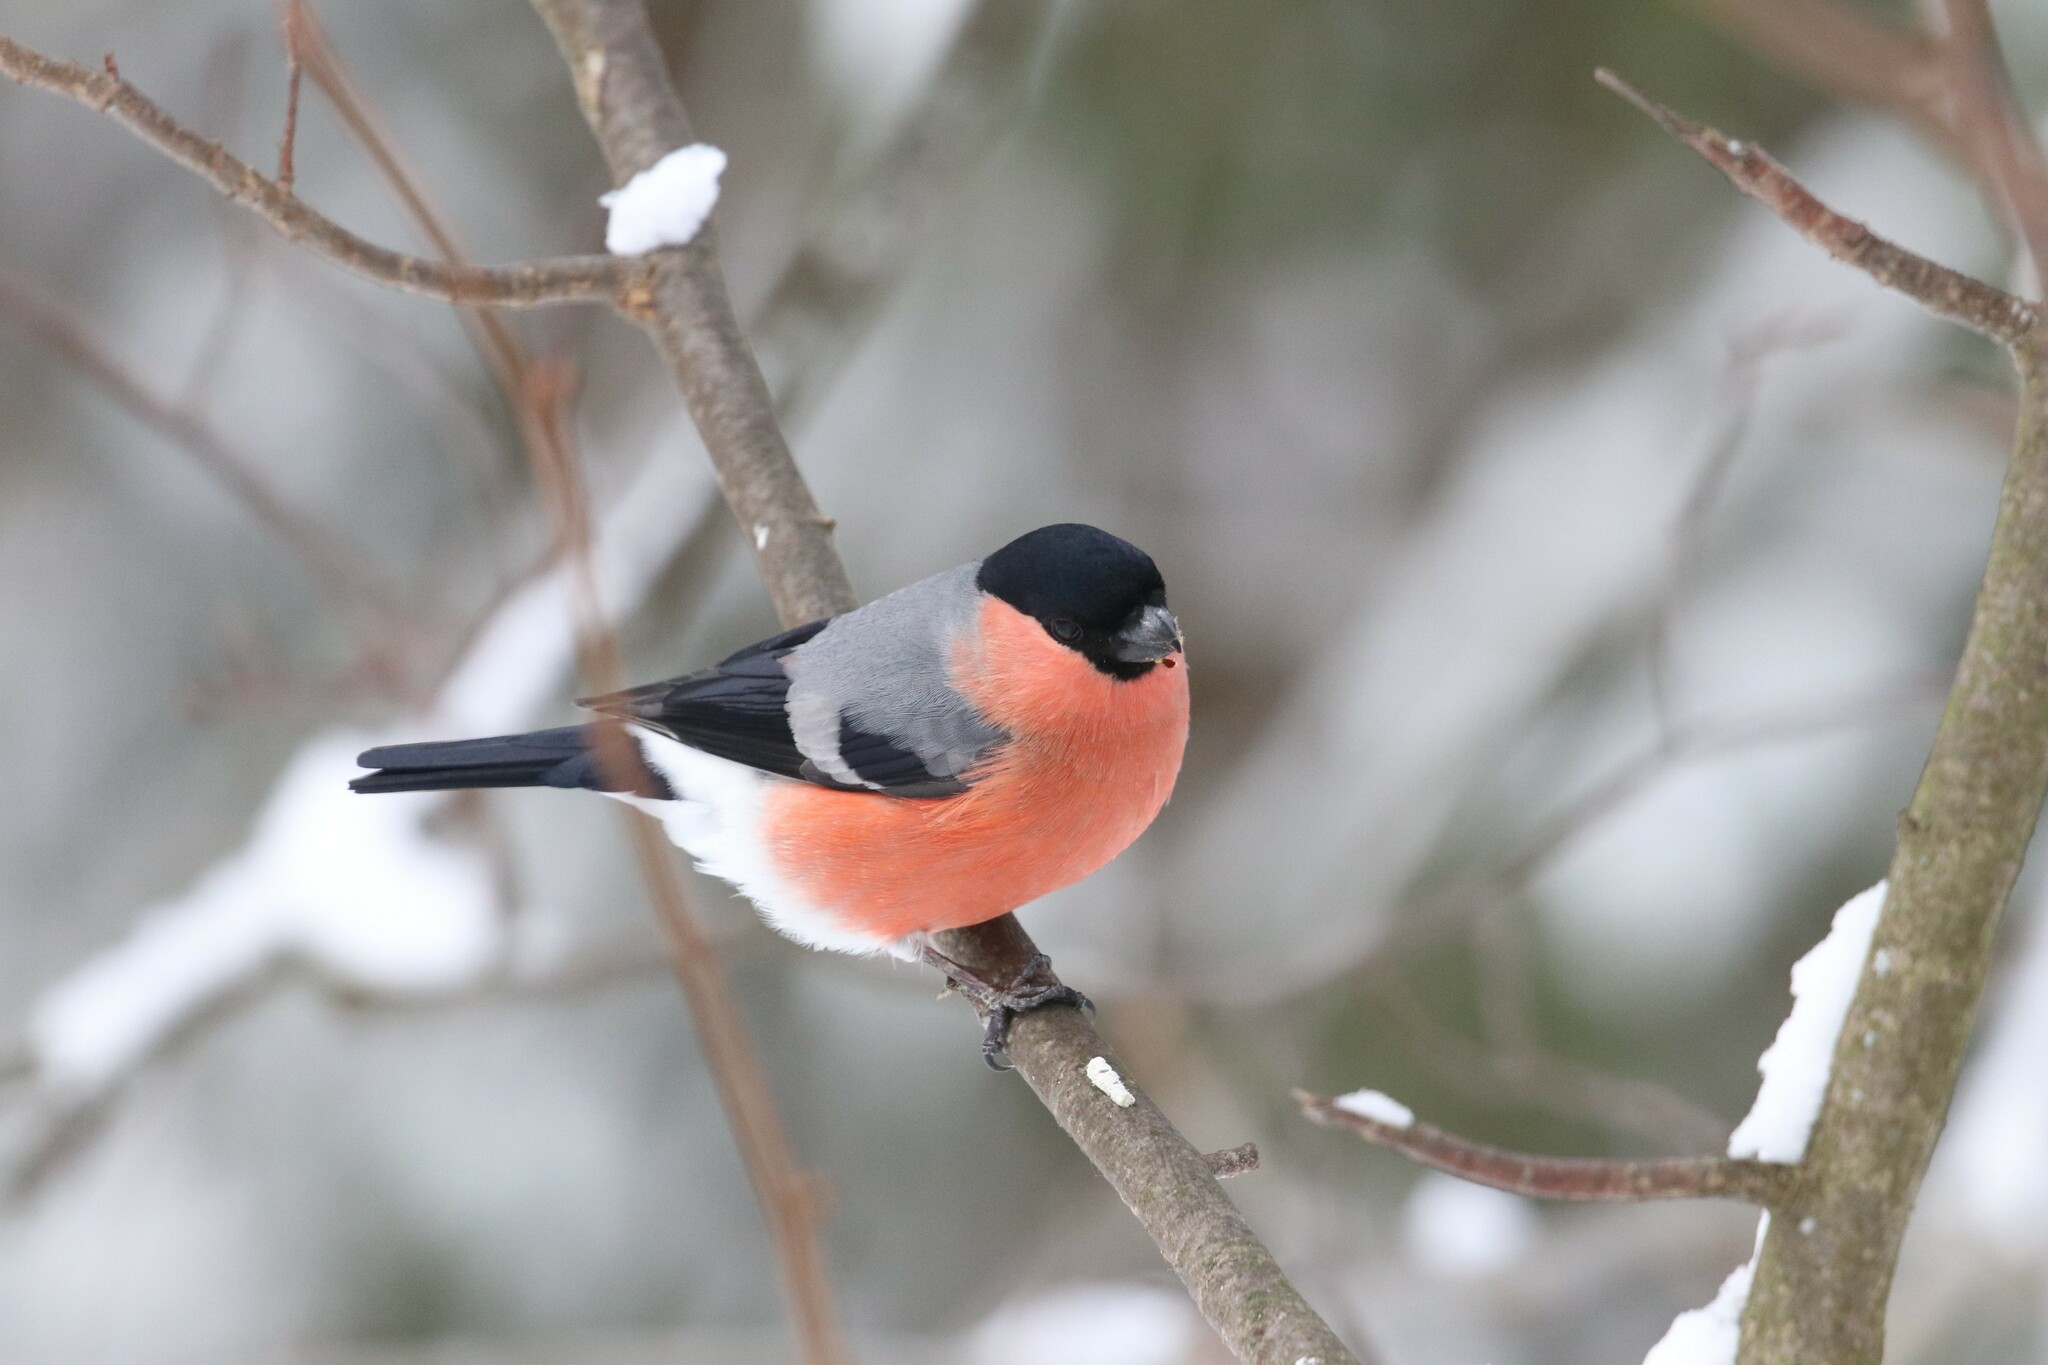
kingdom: Animalia
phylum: Chordata
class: Aves
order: Passeriformes
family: Fringillidae
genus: Pyrrhula
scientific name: Pyrrhula pyrrhula
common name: Eurasian bullfinch
